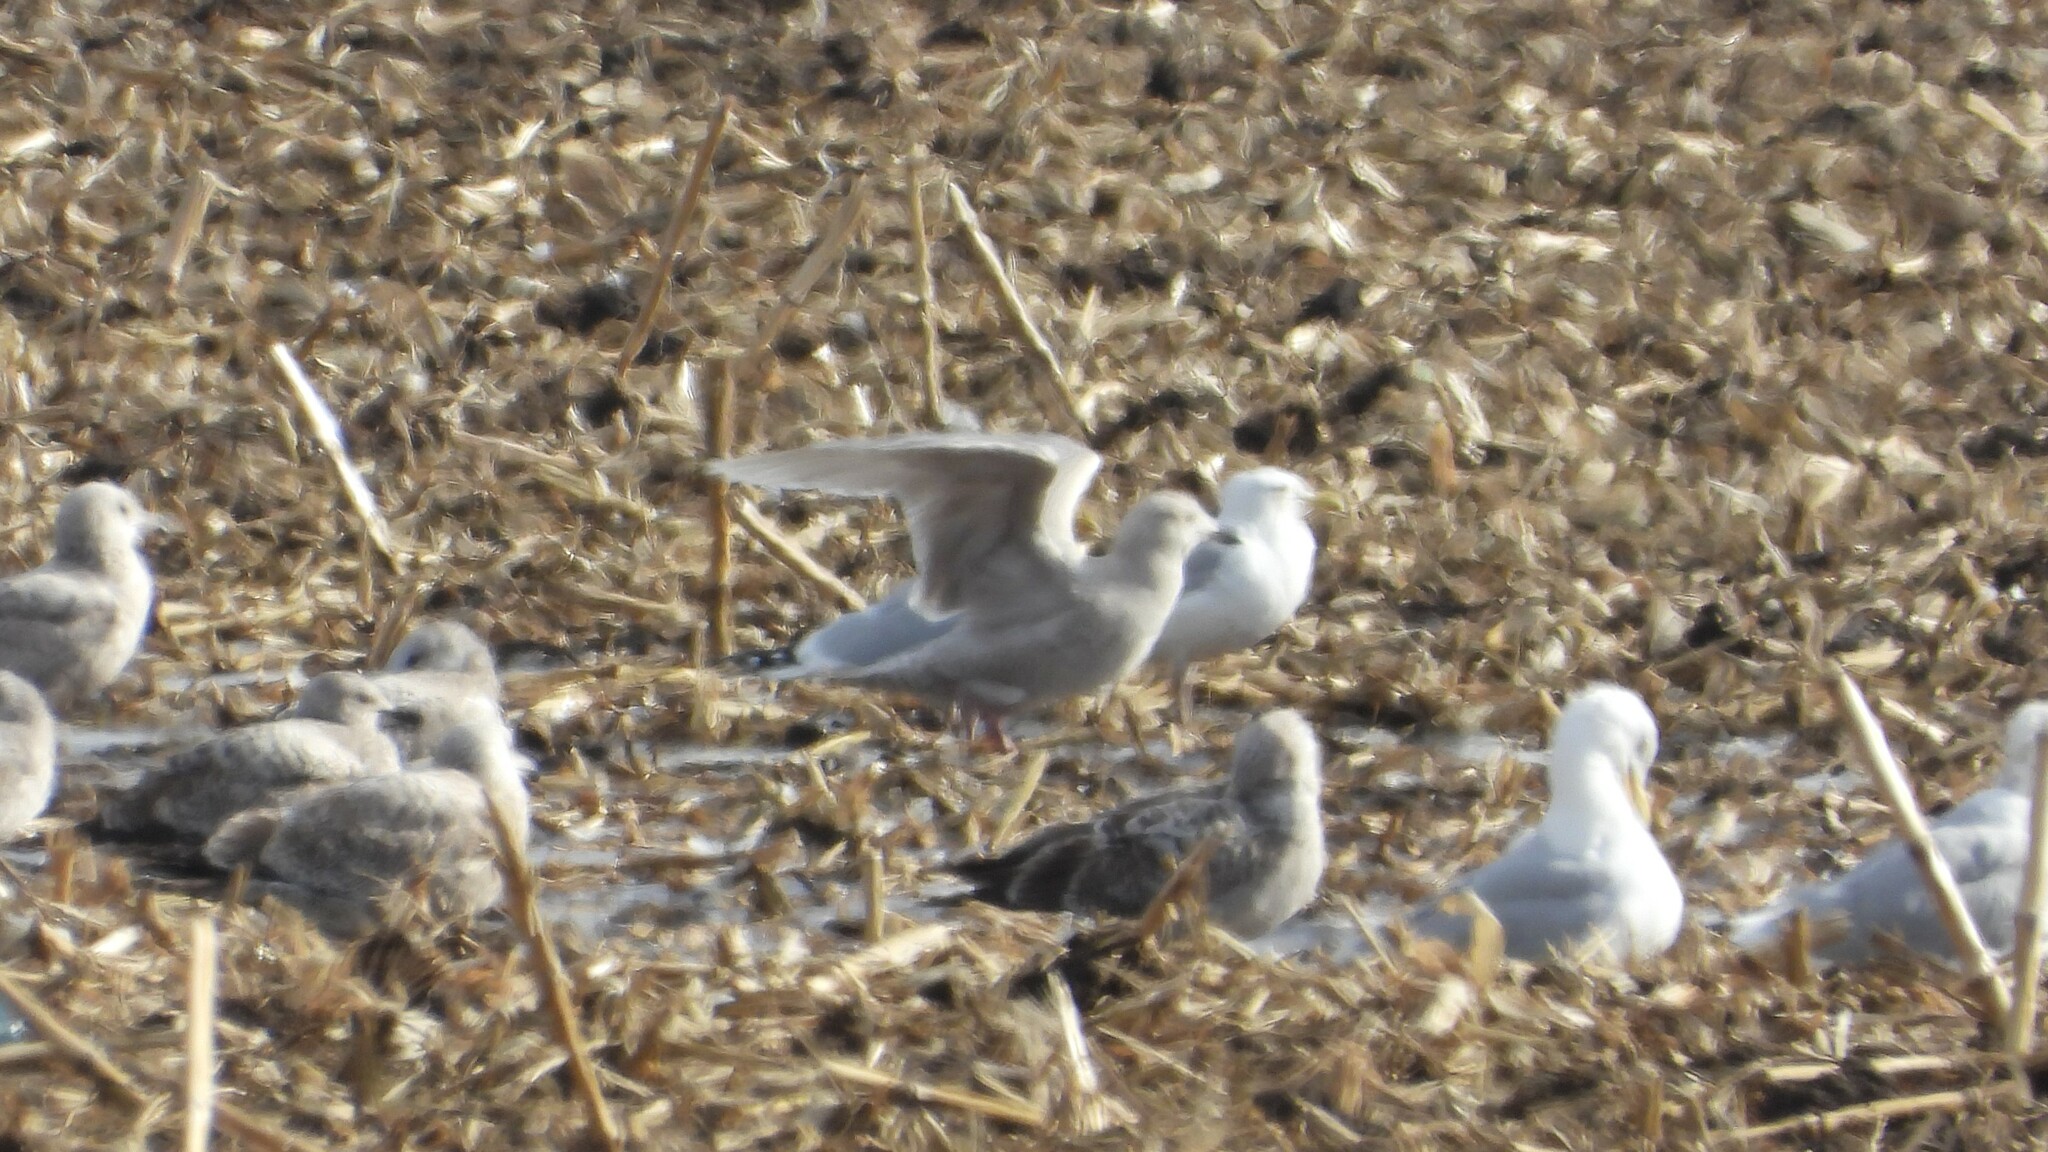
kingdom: Animalia
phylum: Chordata
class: Aves
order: Charadriiformes
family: Laridae
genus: Larus
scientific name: Larus glaucoides
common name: Iceland gull
